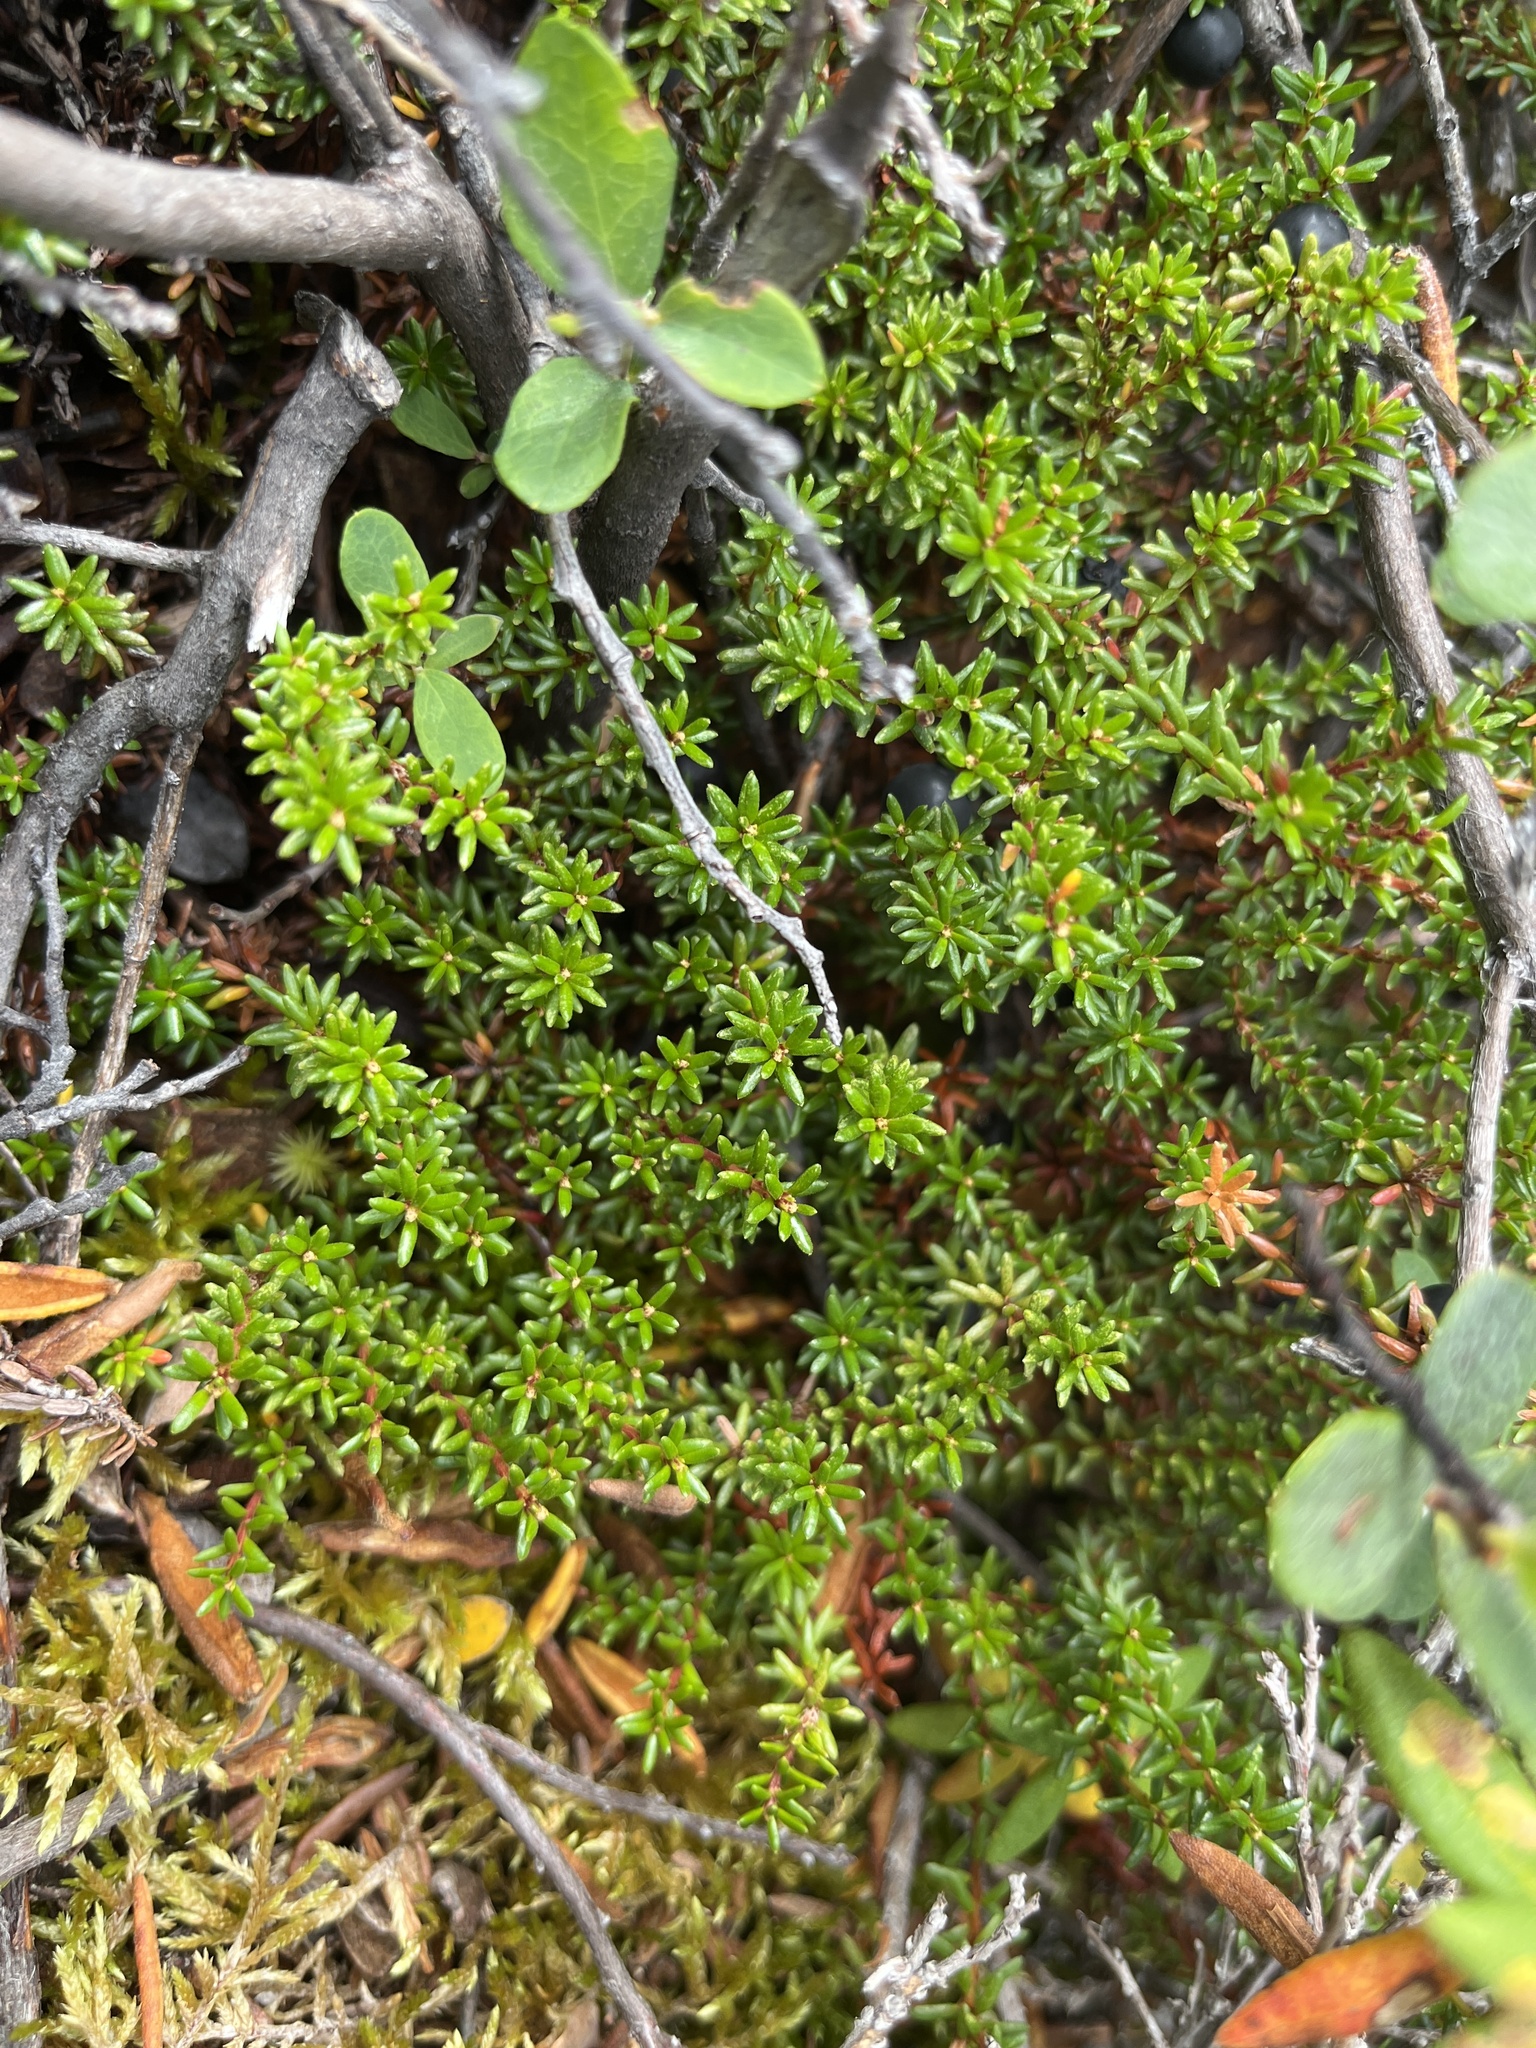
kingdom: Plantae
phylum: Tracheophyta
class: Magnoliopsida
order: Ericales
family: Ericaceae
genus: Empetrum
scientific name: Empetrum hermaphroditum
